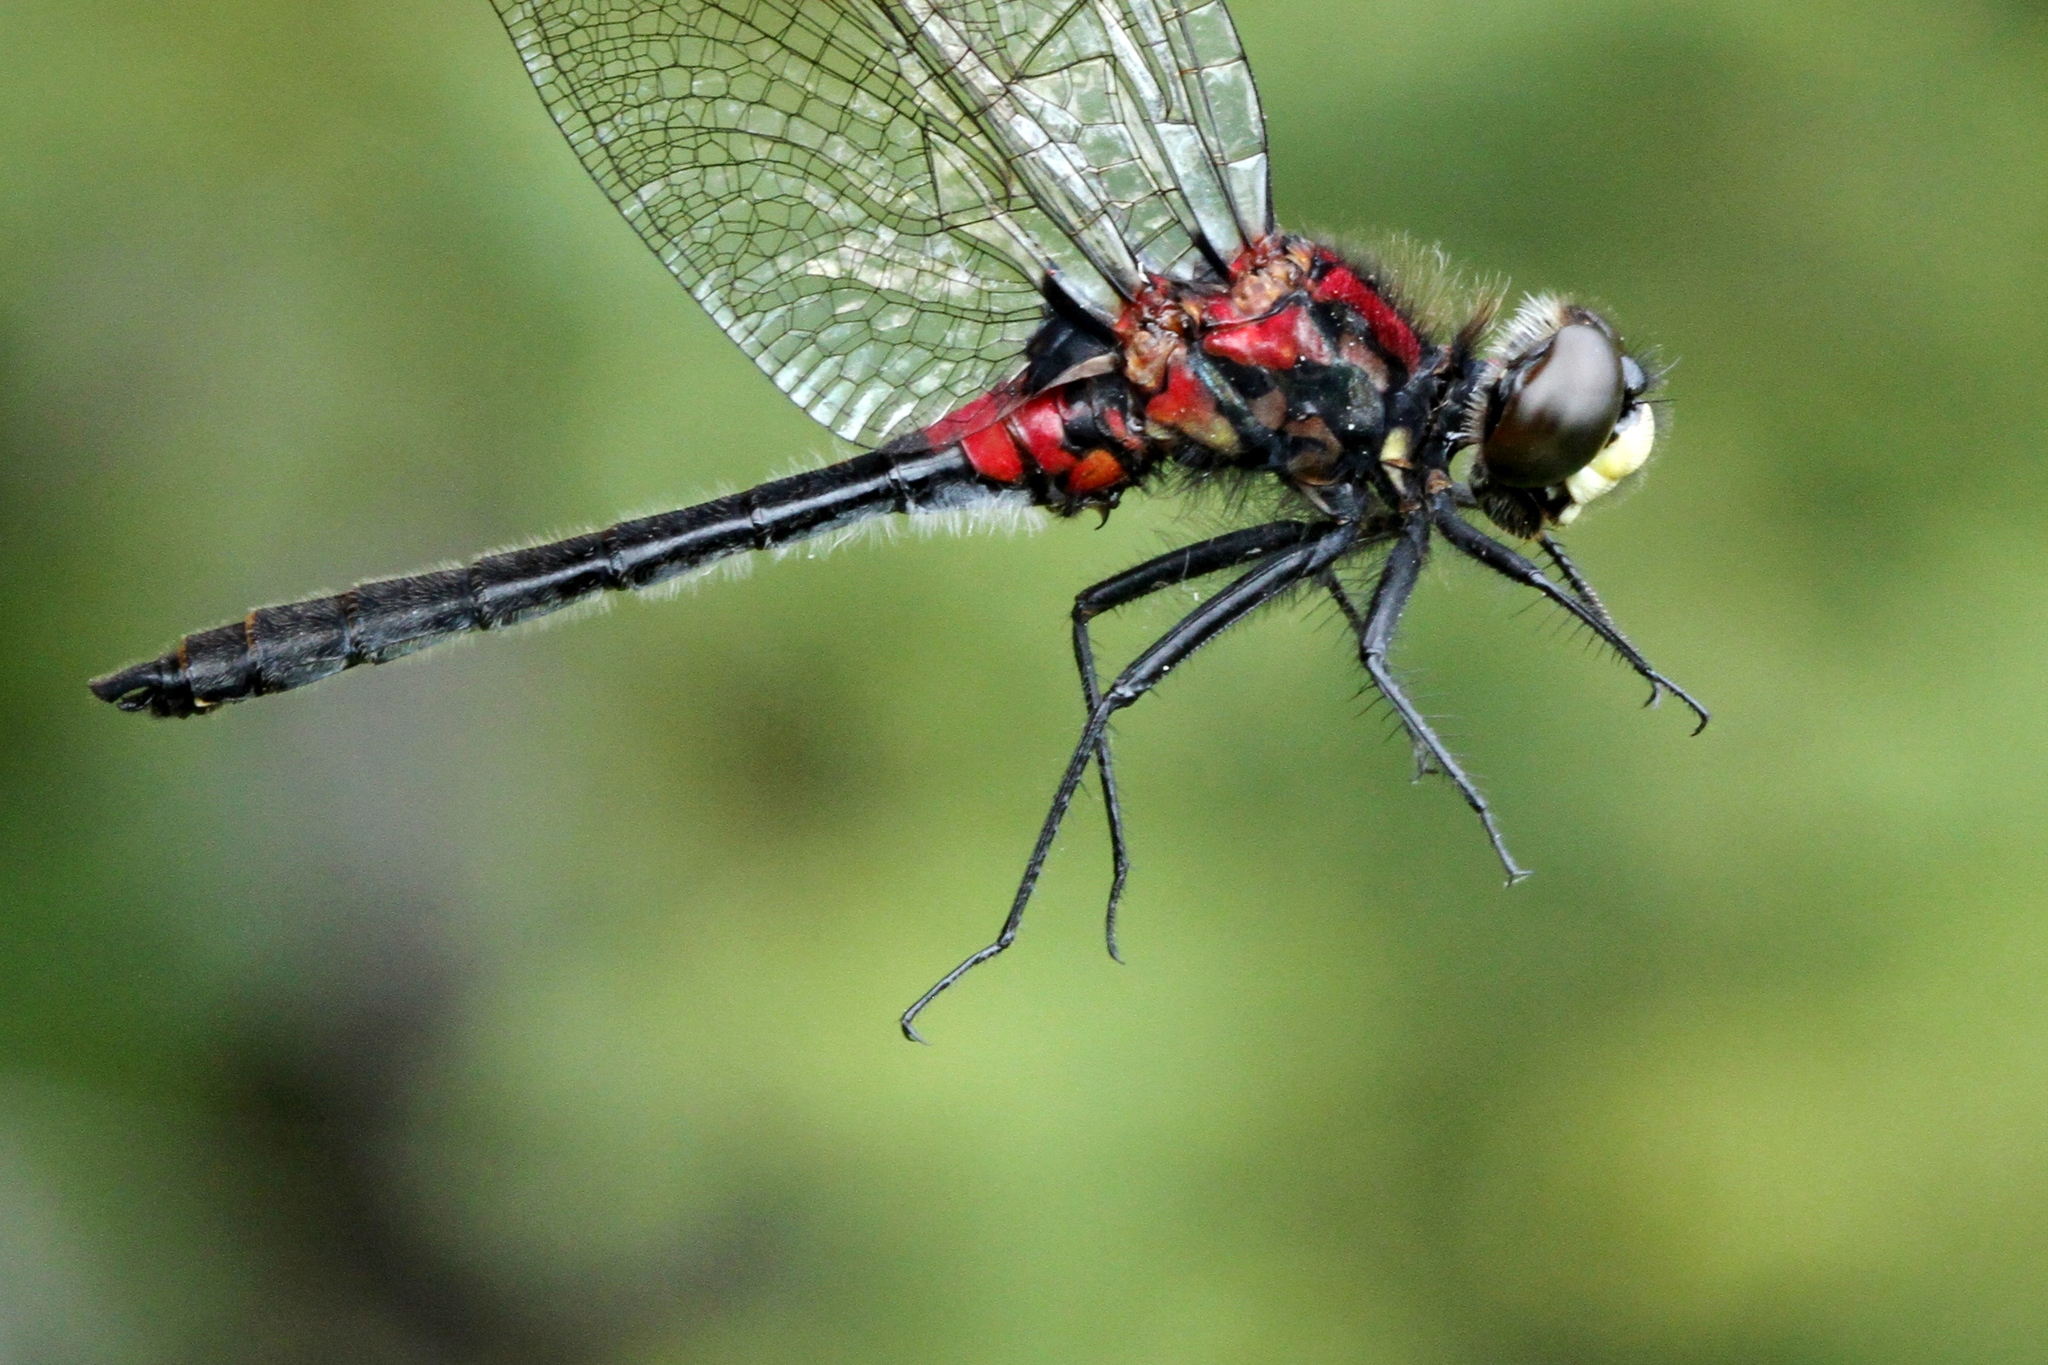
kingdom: Animalia
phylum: Arthropoda
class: Insecta
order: Odonata
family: Libellulidae
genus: Leucorrhinia
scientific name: Leucorrhinia patricia
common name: Canada whiteface
